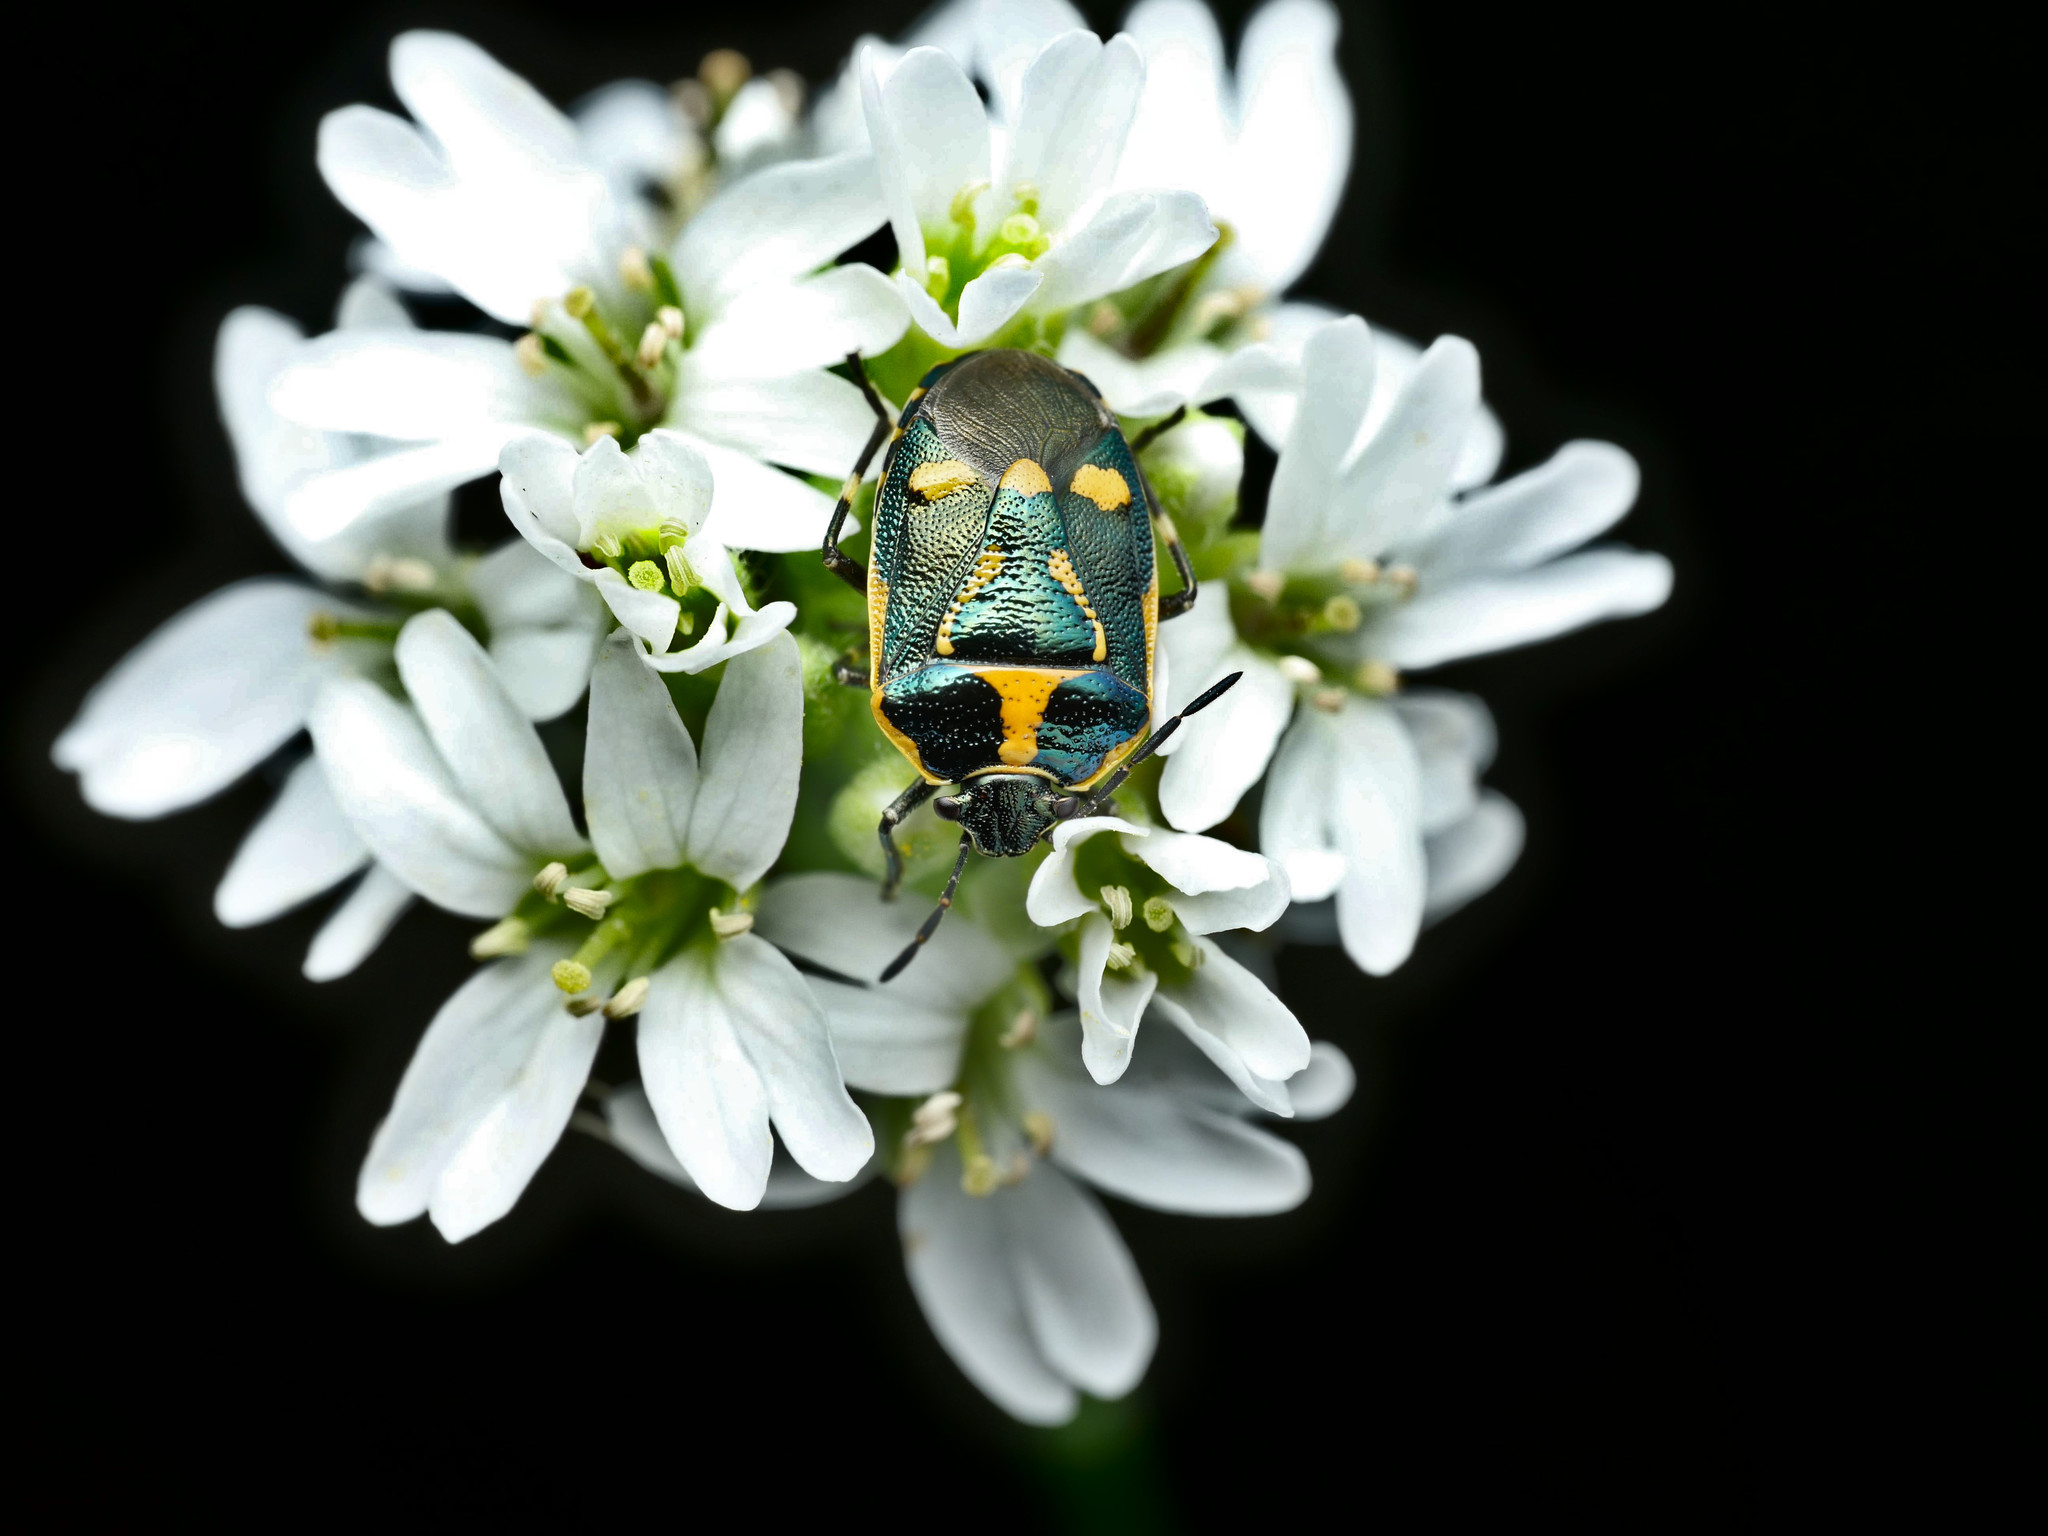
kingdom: Animalia
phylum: Arthropoda
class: Insecta
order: Hemiptera
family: Pentatomidae
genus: Eurydema
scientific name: Eurydema oleracea
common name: Cabbage bug
